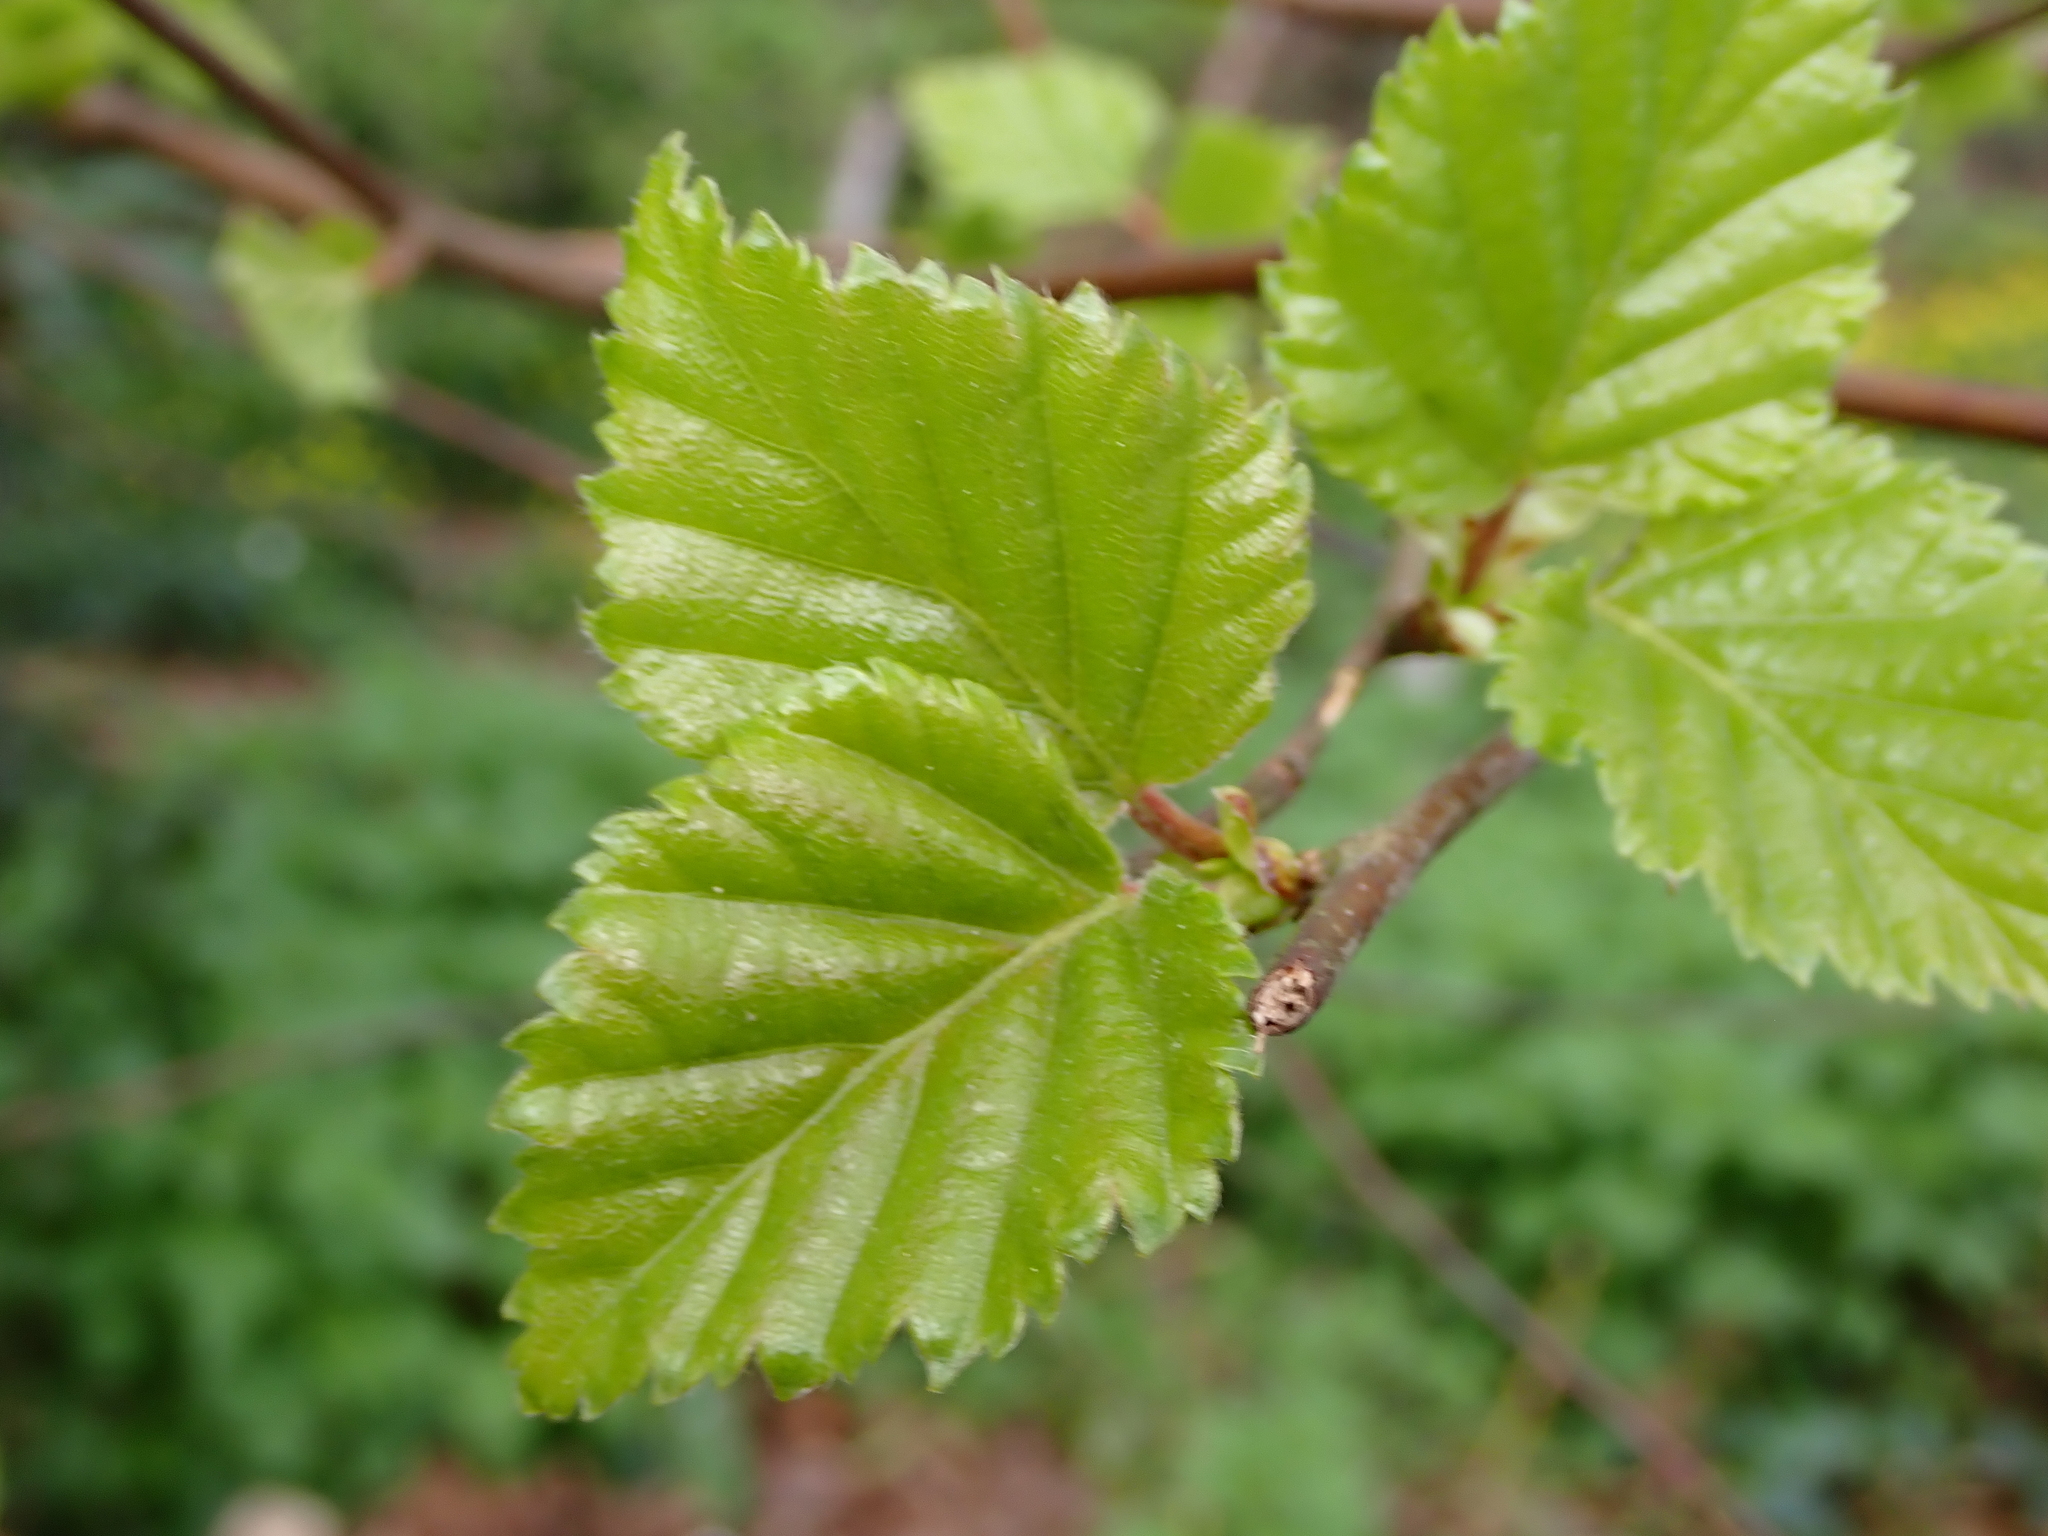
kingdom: Plantae
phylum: Tracheophyta
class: Magnoliopsida
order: Fagales
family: Betulaceae
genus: Betula
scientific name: Betula pubescens
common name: Downy birch
